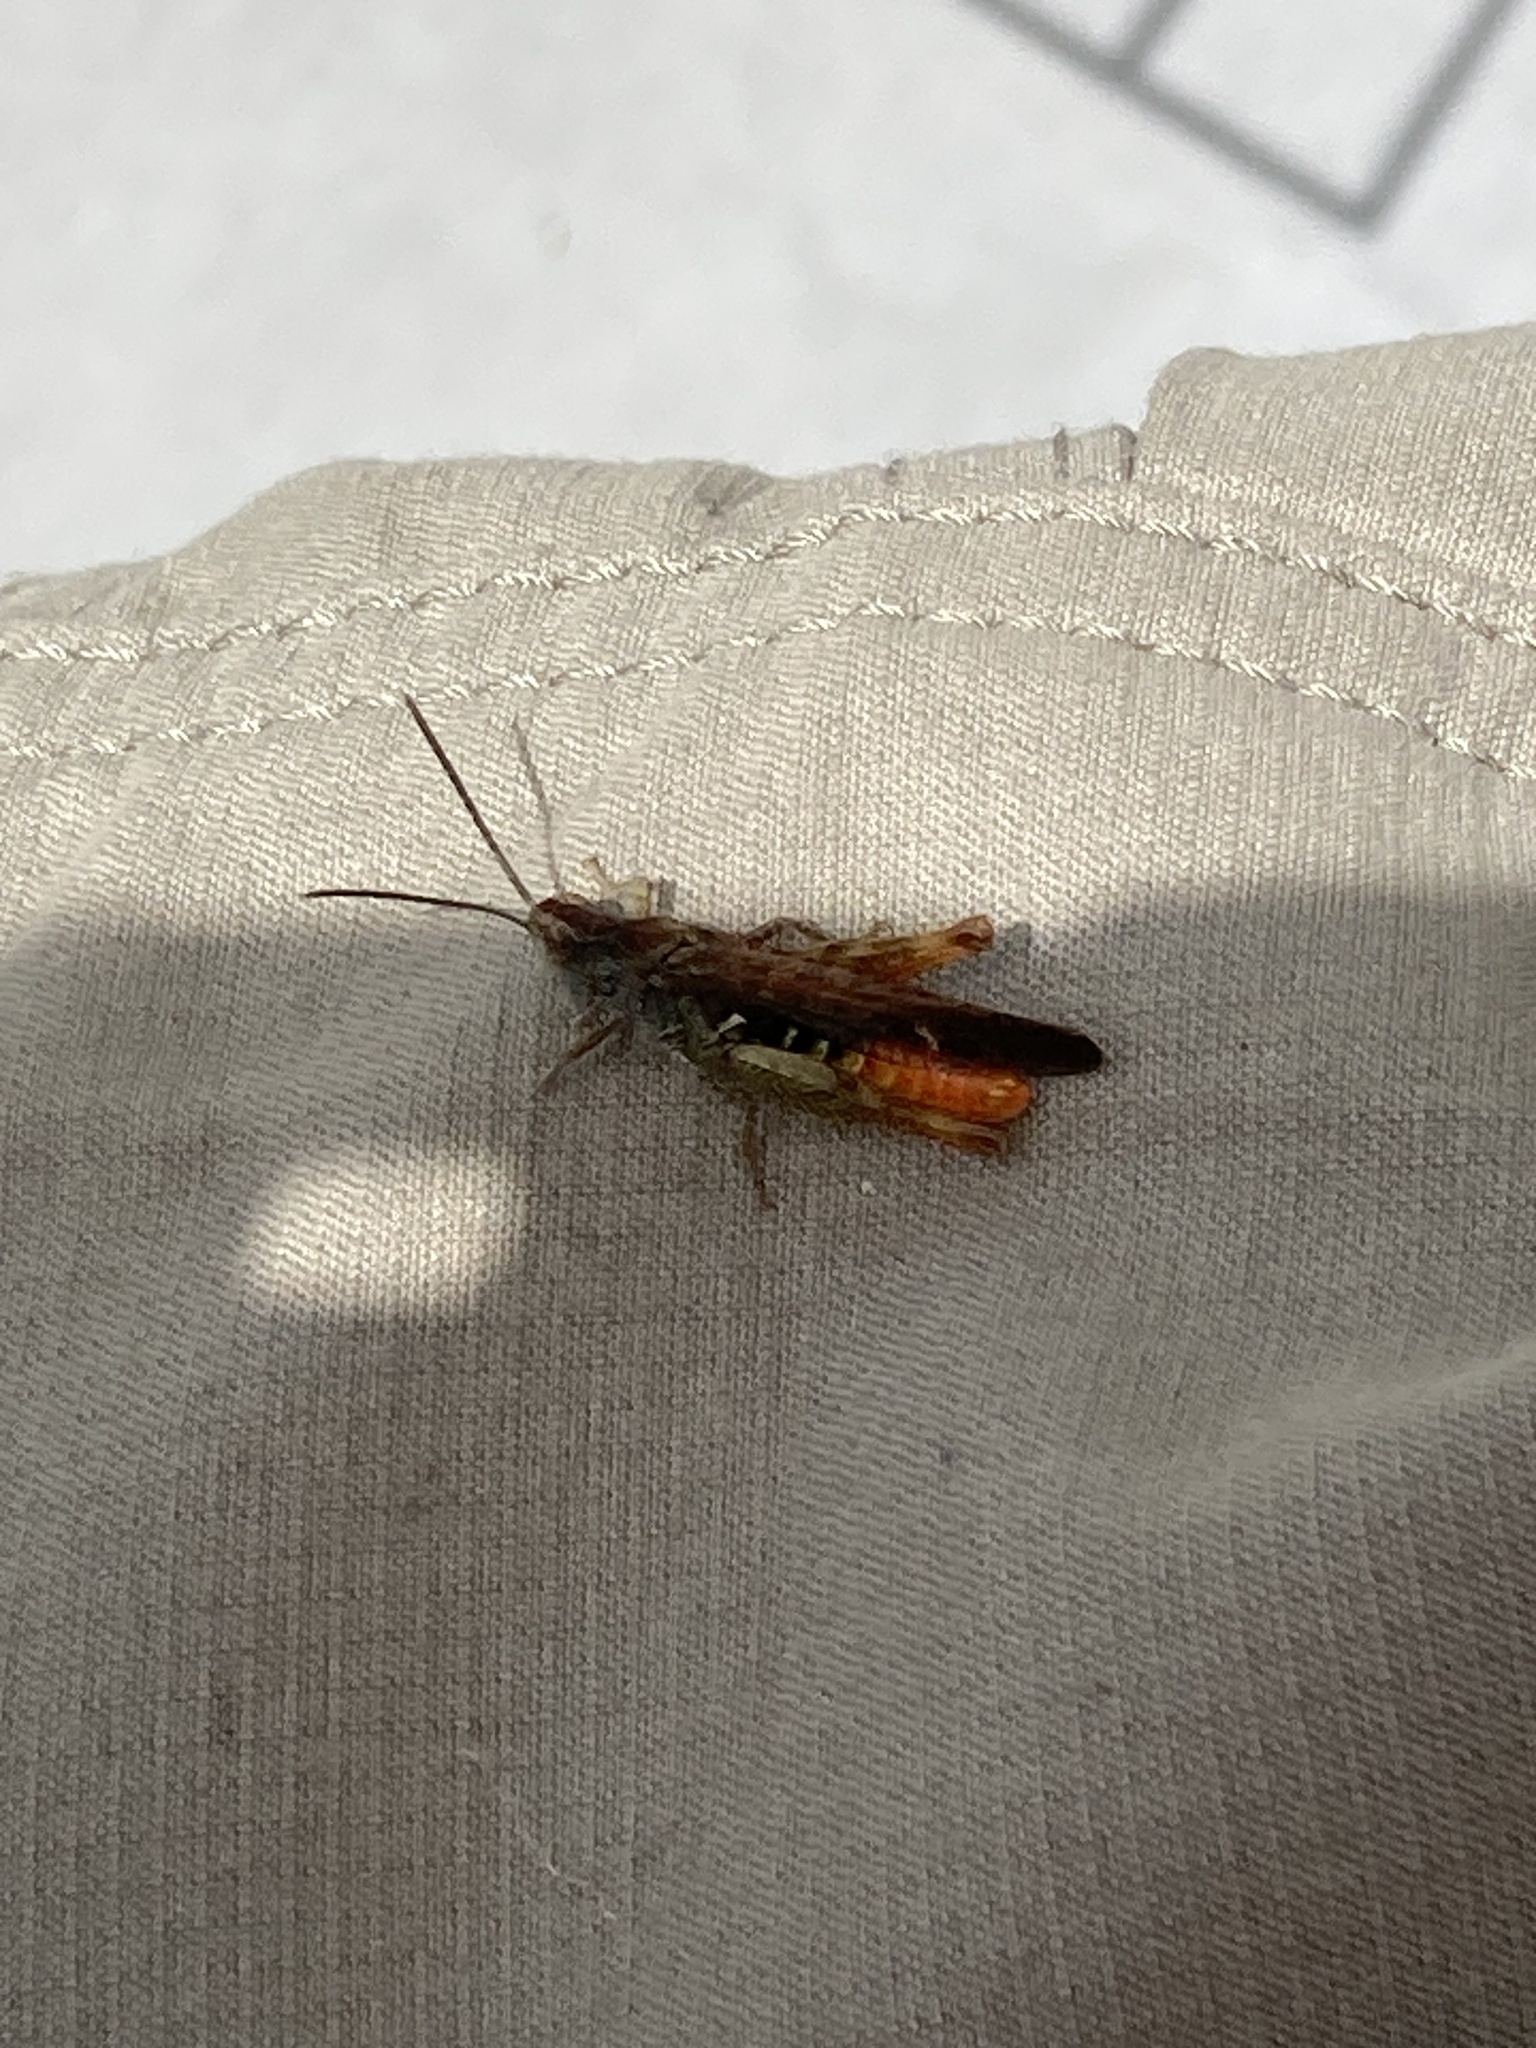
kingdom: Animalia
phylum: Arthropoda
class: Insecta
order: Orthoptera
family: Acrididae
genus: Chorthippus
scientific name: Chorthippus maritimus
